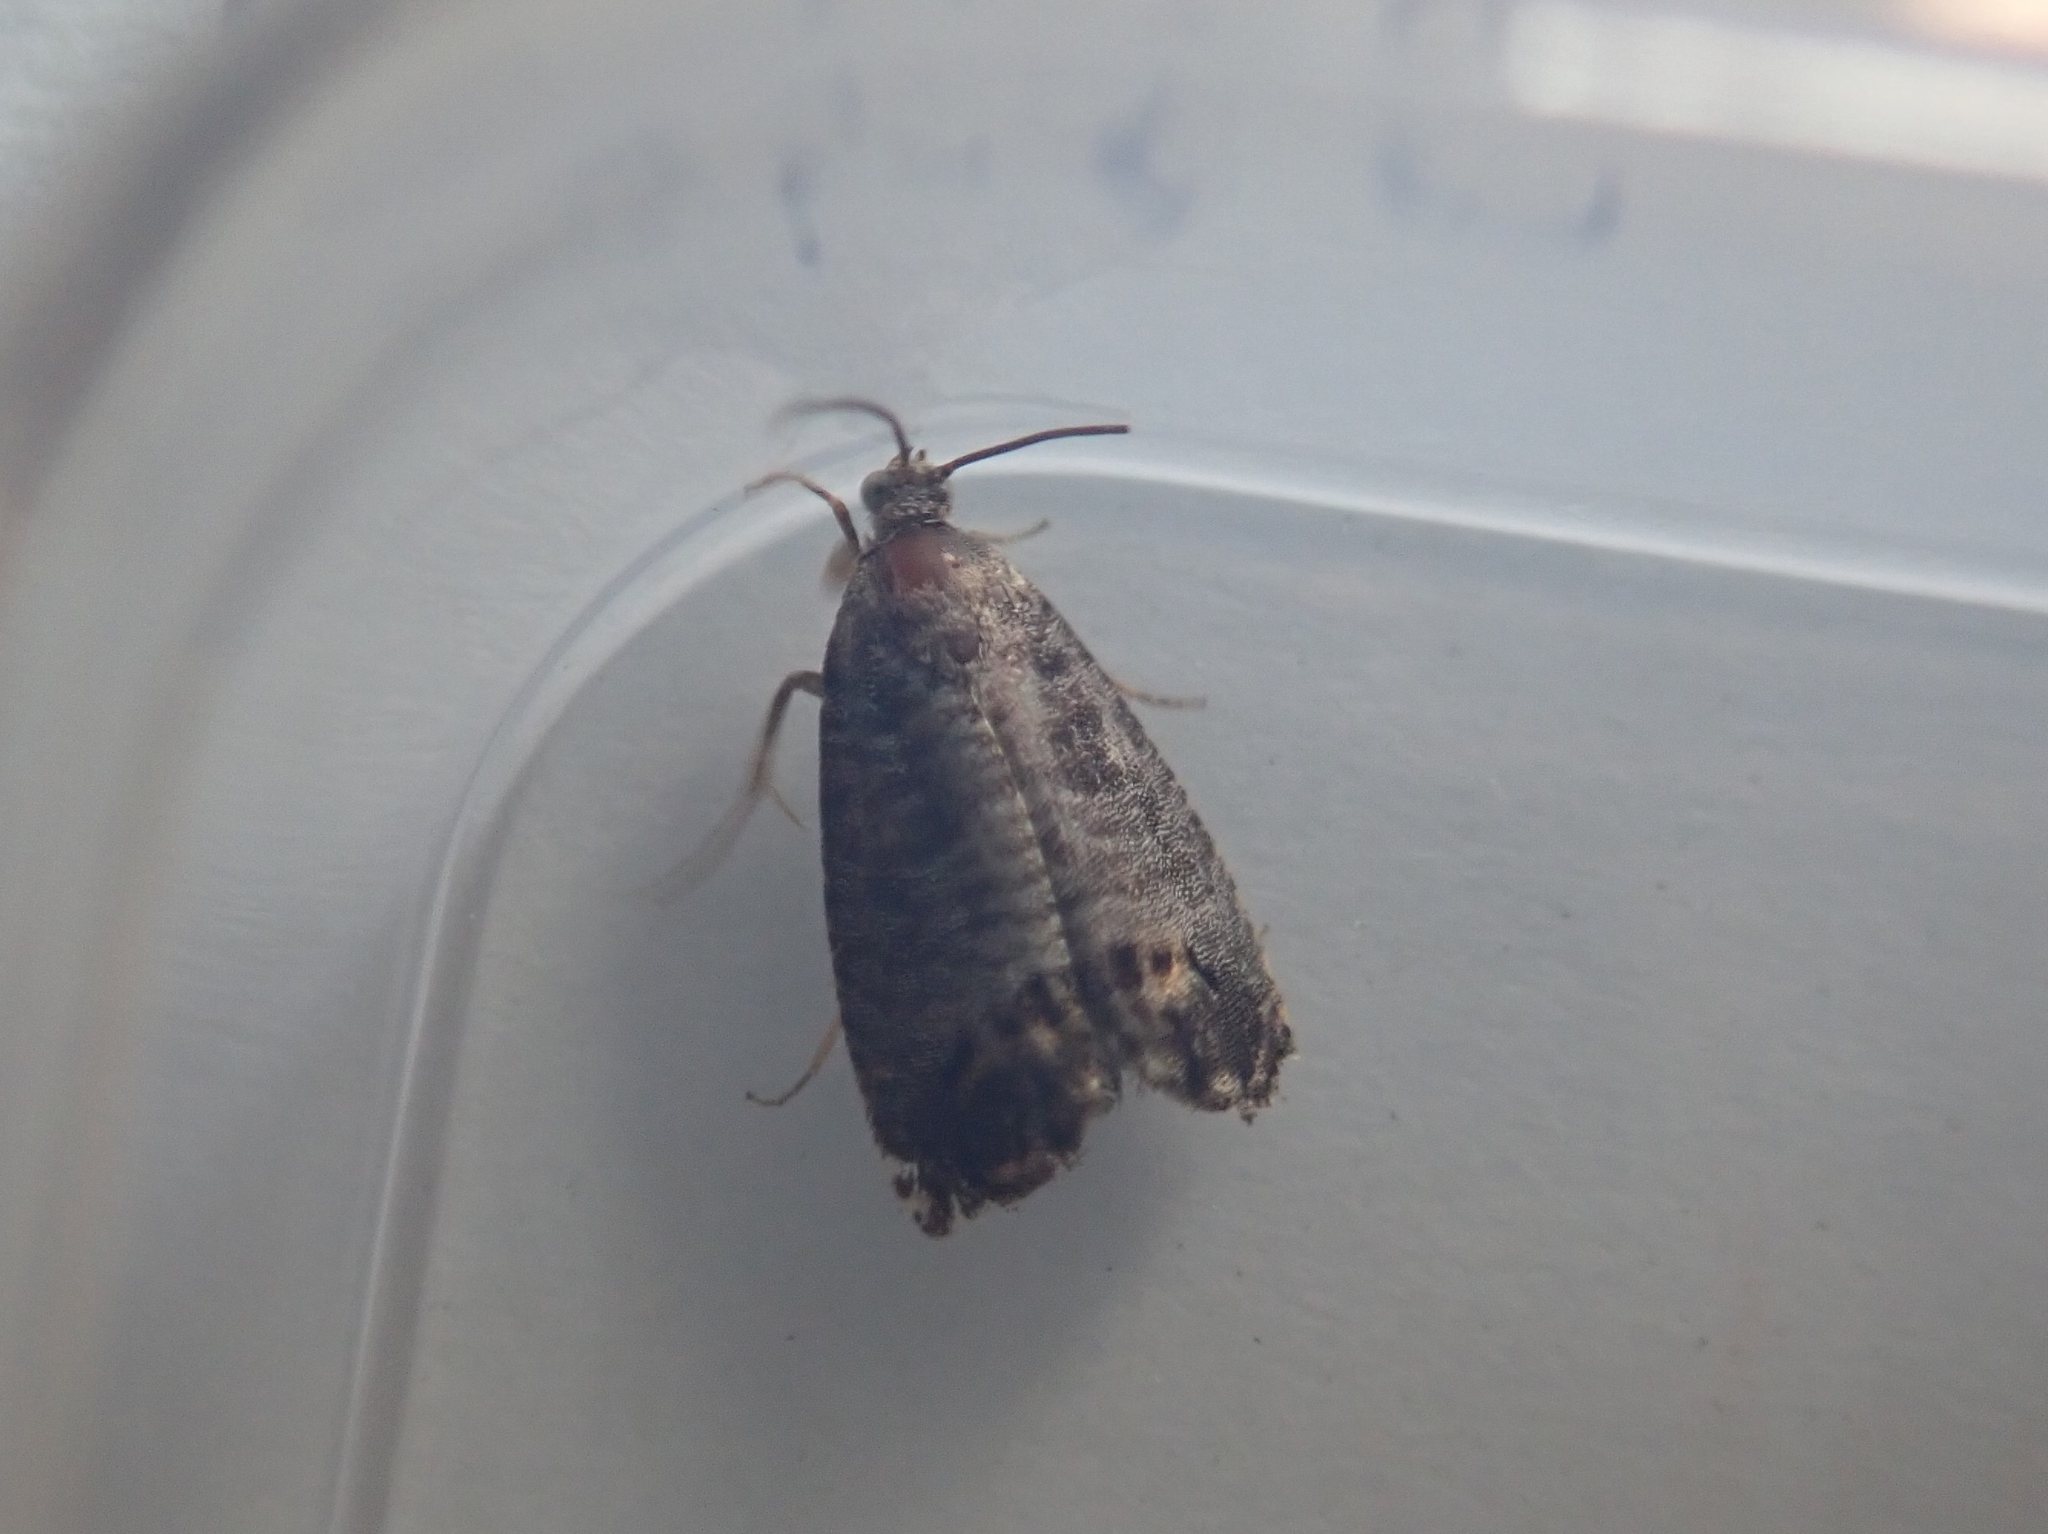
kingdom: Animalia
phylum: Arthropoda
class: Insecta
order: Lepidoptera
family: Tortricidae
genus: Cydia
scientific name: Cydia pomonella
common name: Codling moth
